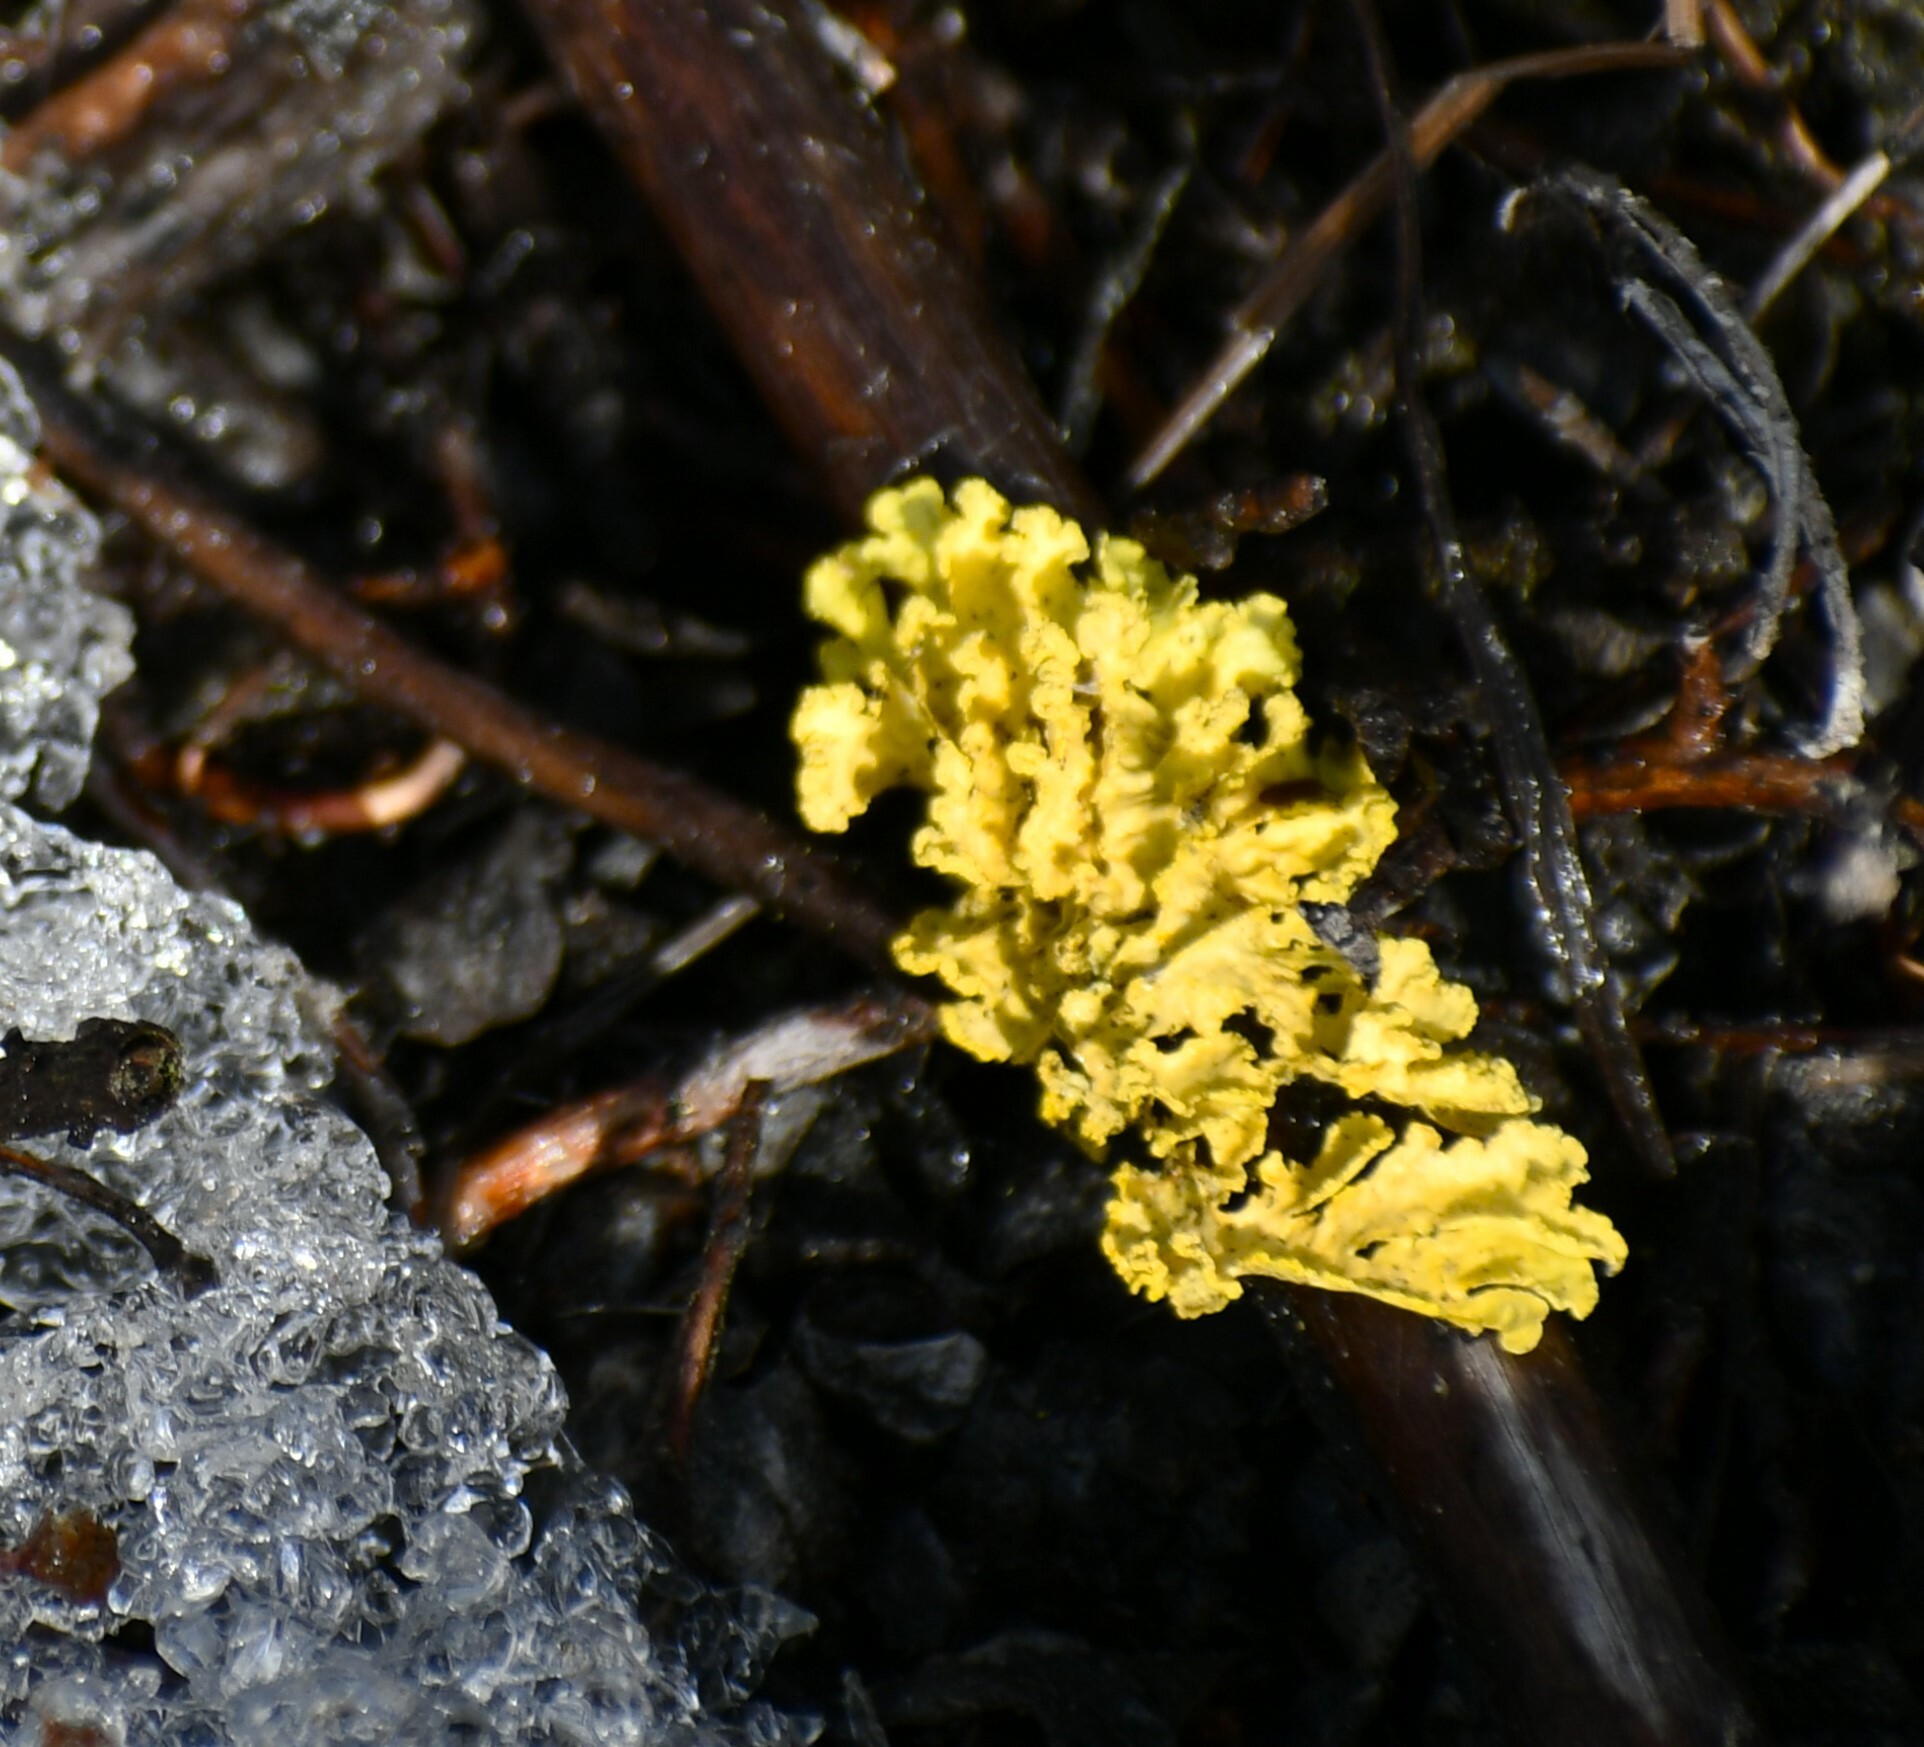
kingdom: Fungi
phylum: Ascomycota
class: Lecanoromycetes
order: Lecanorales
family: Parmeliaceae
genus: Vulpicida
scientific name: Vulpicida pinastri
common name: Powdered sunshine lichen
